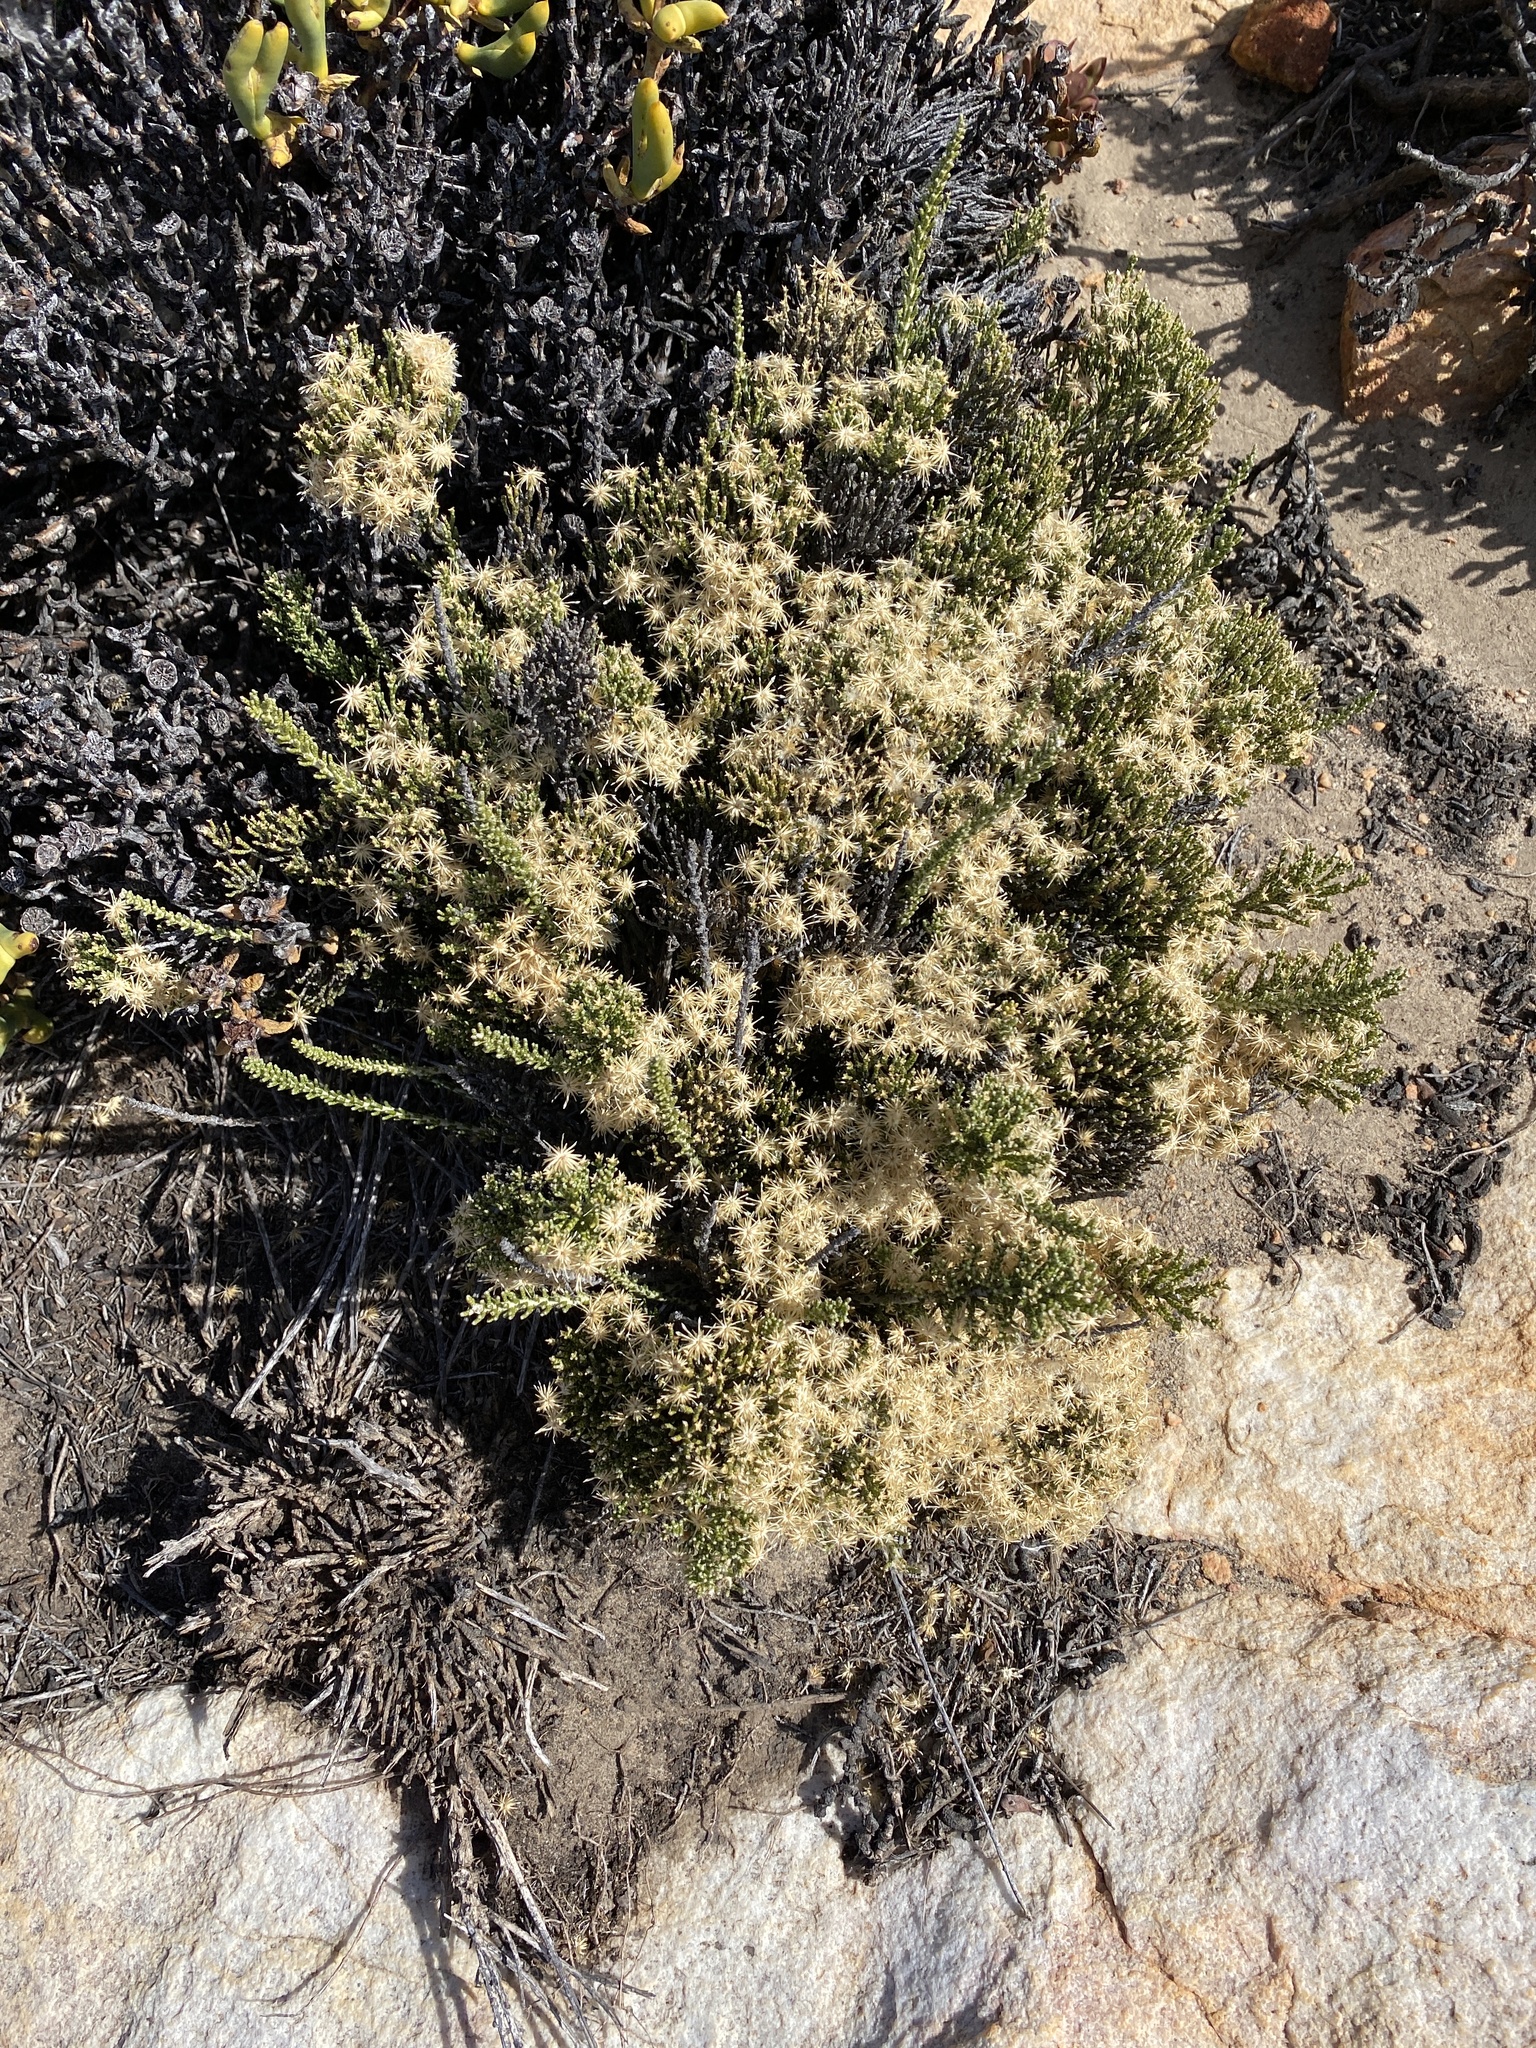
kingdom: Plantae
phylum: Tracheophyta
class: Magnoliopsida
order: Asterales
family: Asteraceae
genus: Dolichothrix
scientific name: Dolichothrix ericoides
